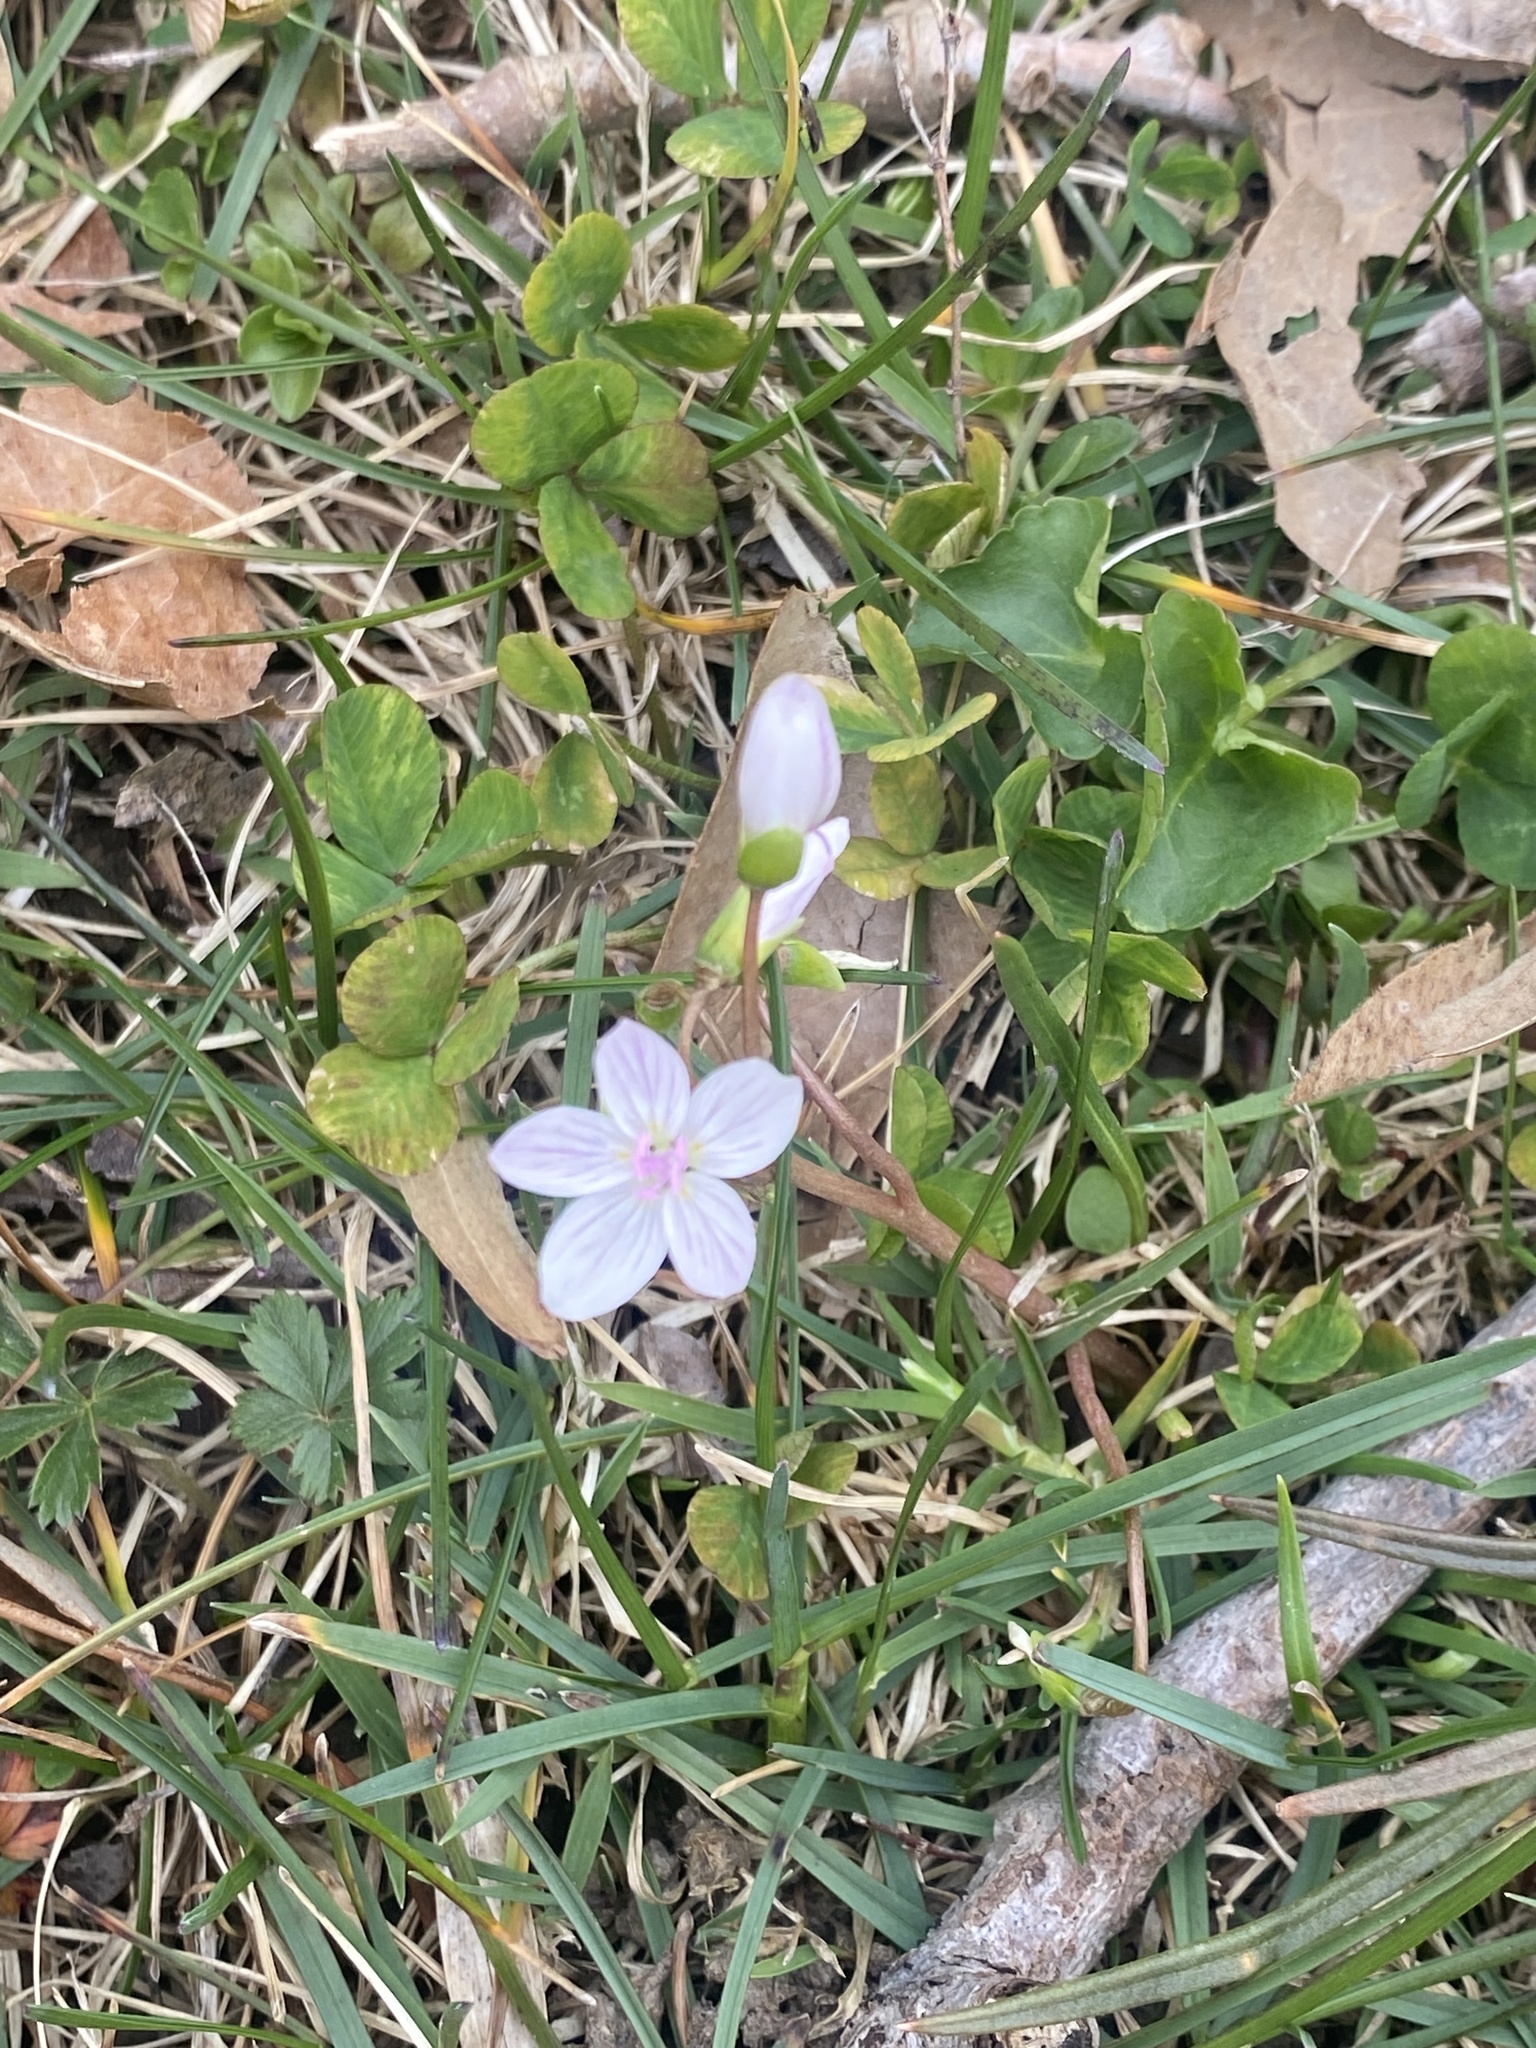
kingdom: Plantae
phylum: Tracheophyta
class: Magnoliopsida
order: Caryophyllales
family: Montiaceae
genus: Claytonia
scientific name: Claytonia virginica
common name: Virginia springbeauty
